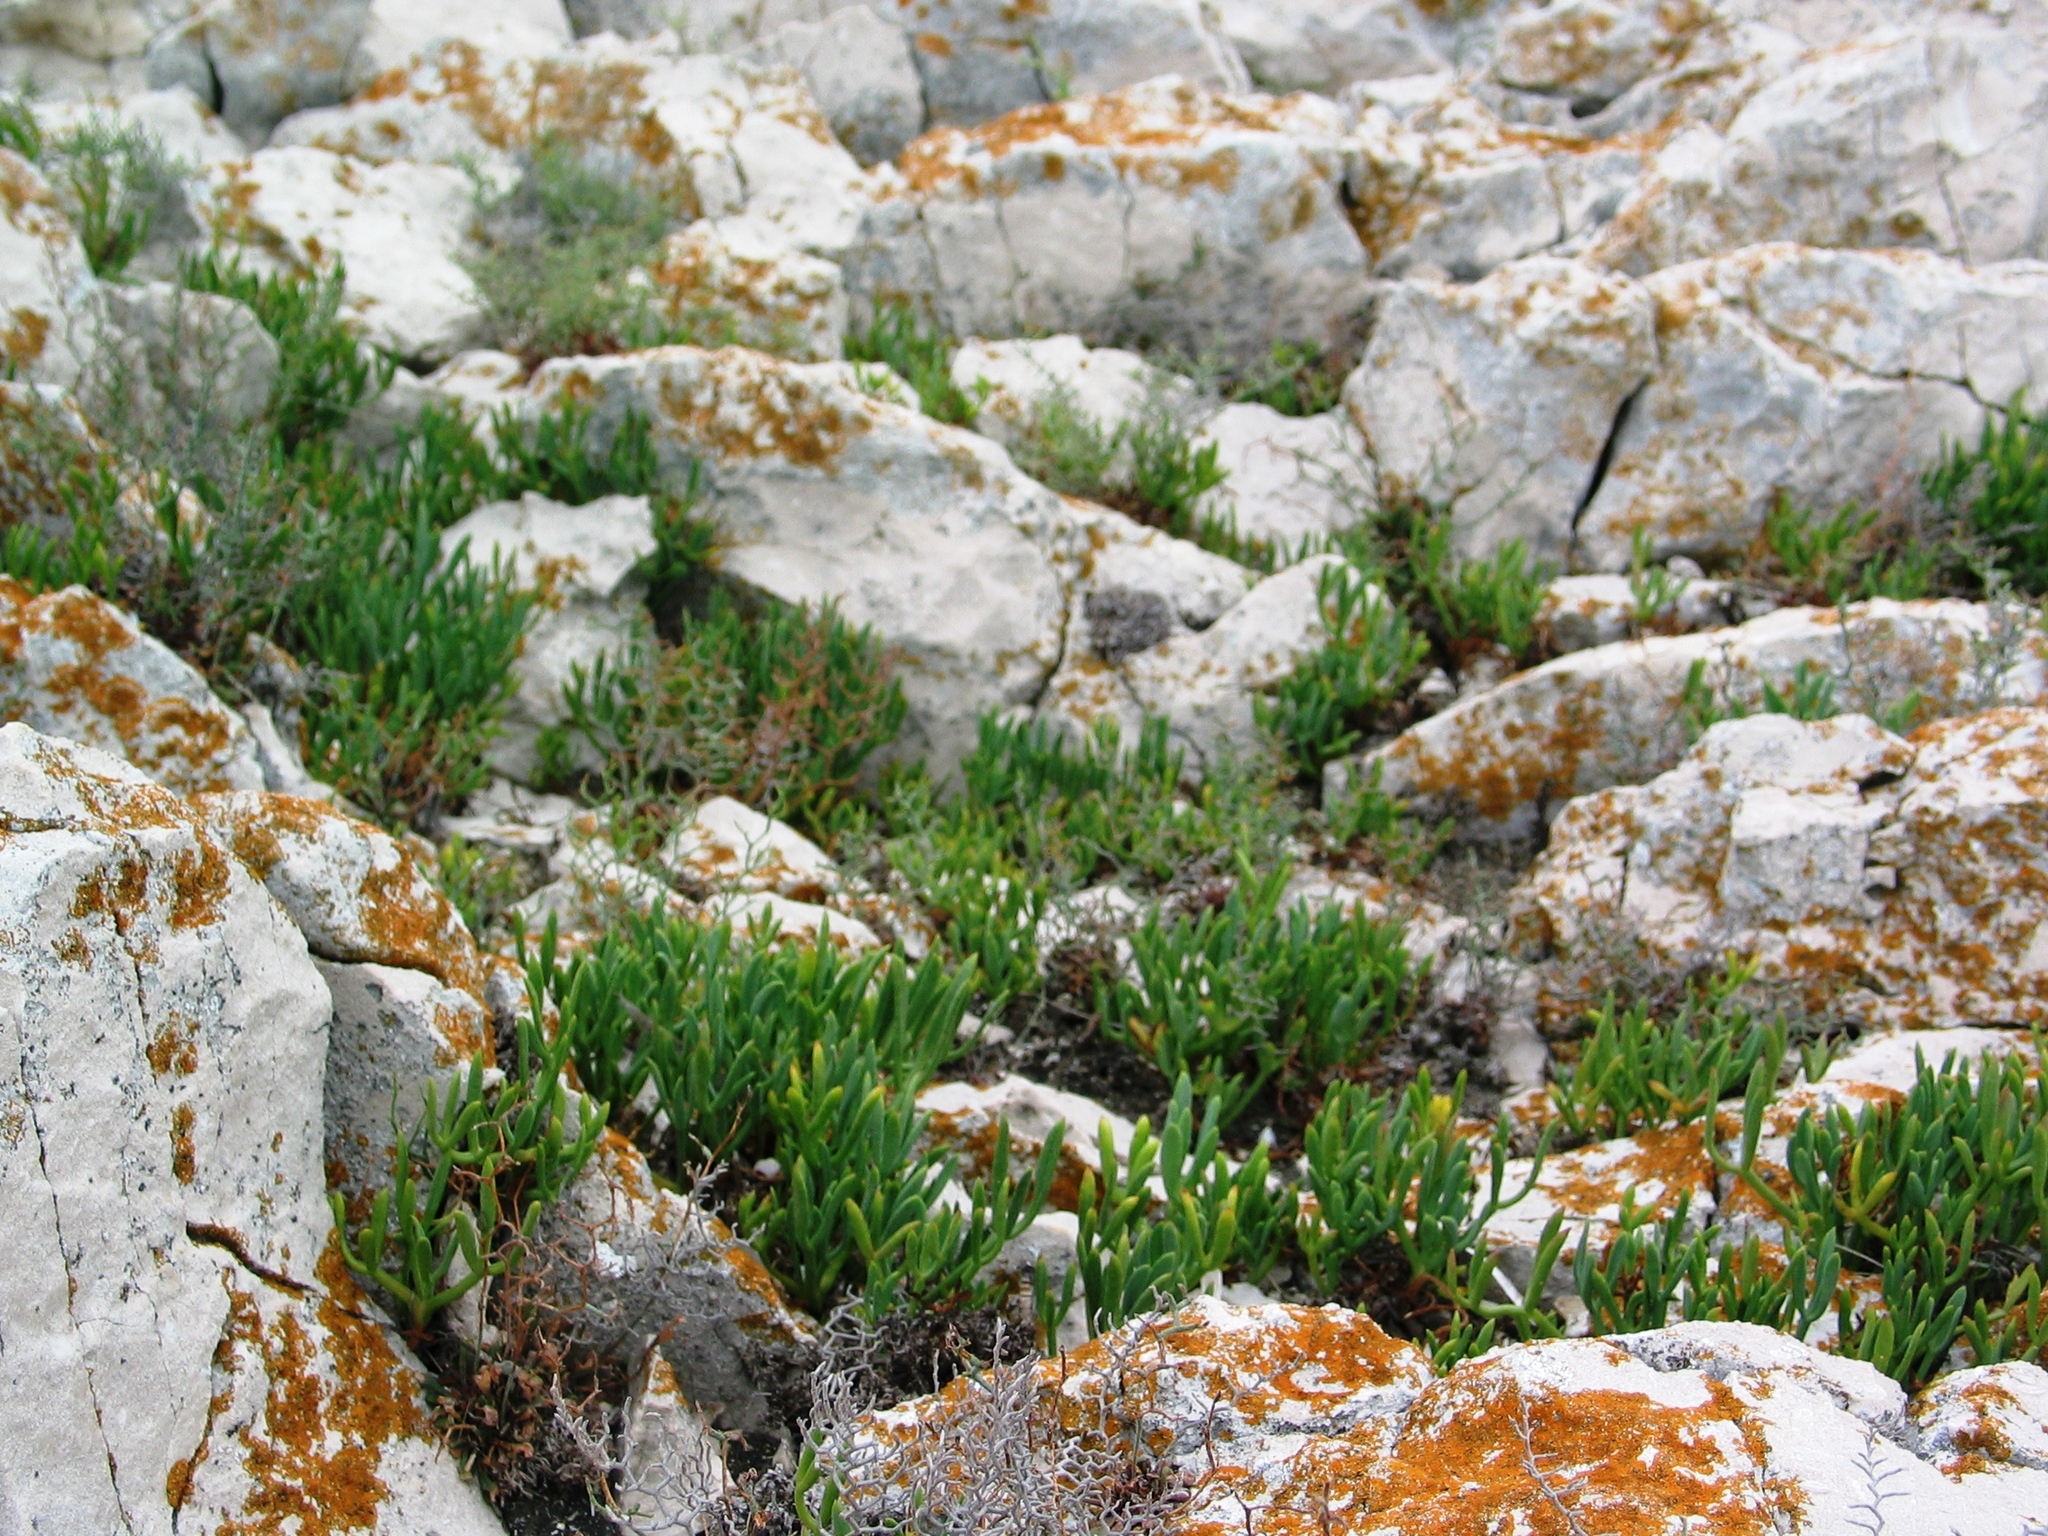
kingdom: Plantae
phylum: Tracheophyta
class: Magnoliopsida
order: Apiales
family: Apiaceae
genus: Crithmum
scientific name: Crithmum maritimum
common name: Rock samphire
